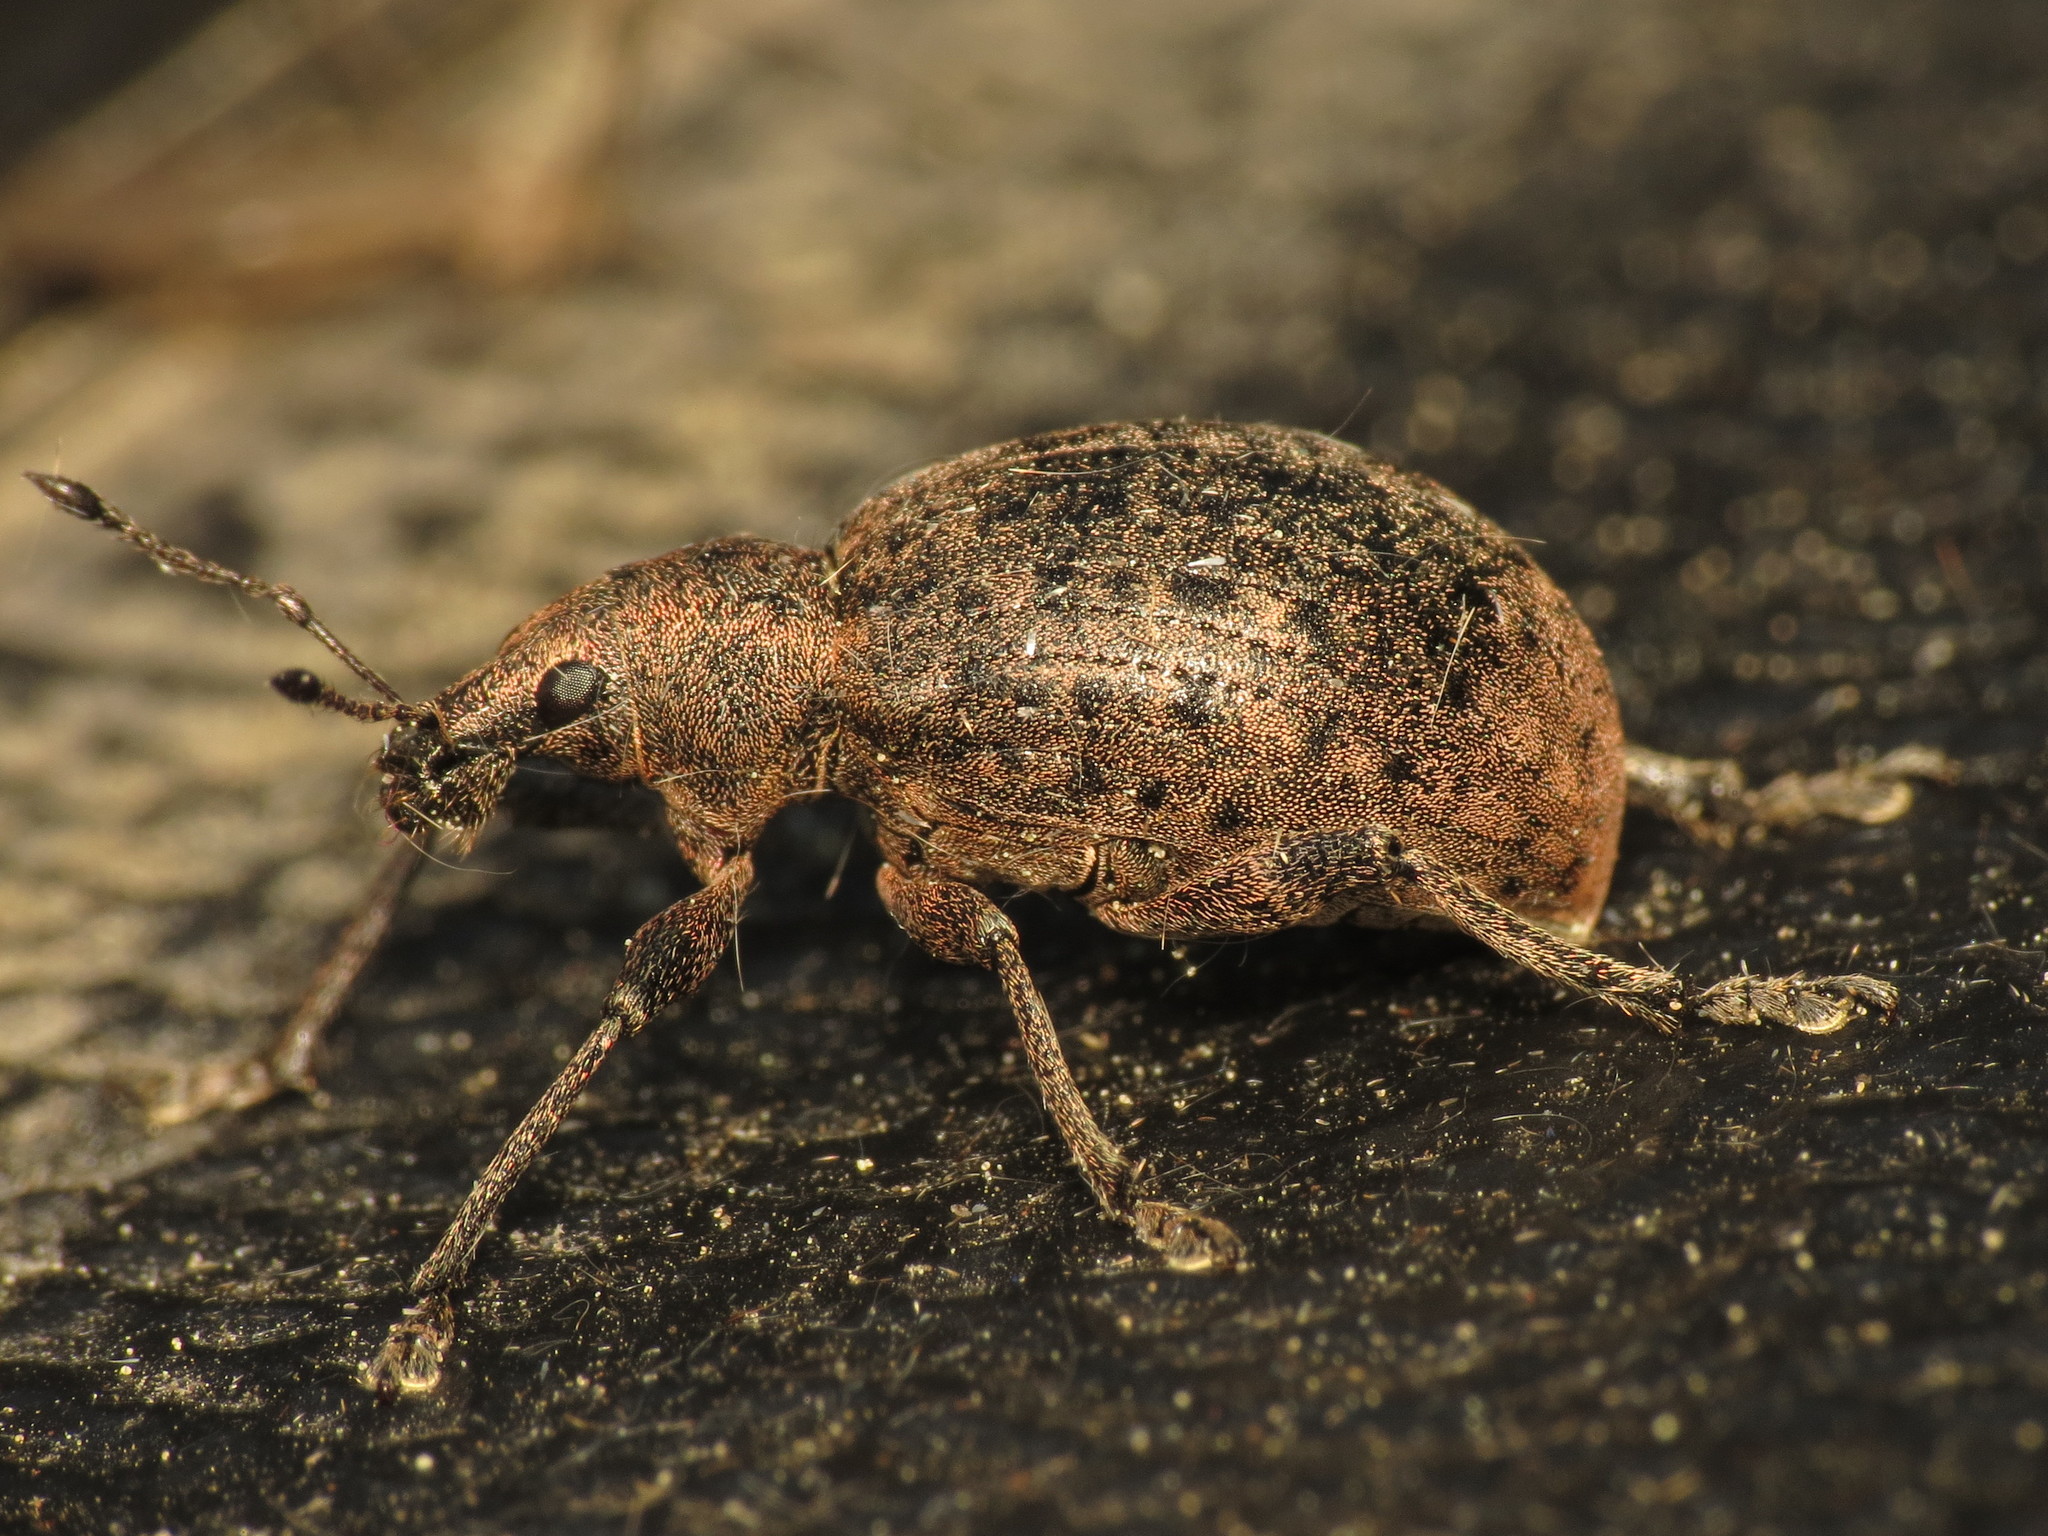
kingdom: Animalia
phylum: Arthropoda
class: Insecta
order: Coleoptera
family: Curculionidae
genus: Liophloeus
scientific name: Liophloeus tessulatus
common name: Weevil
